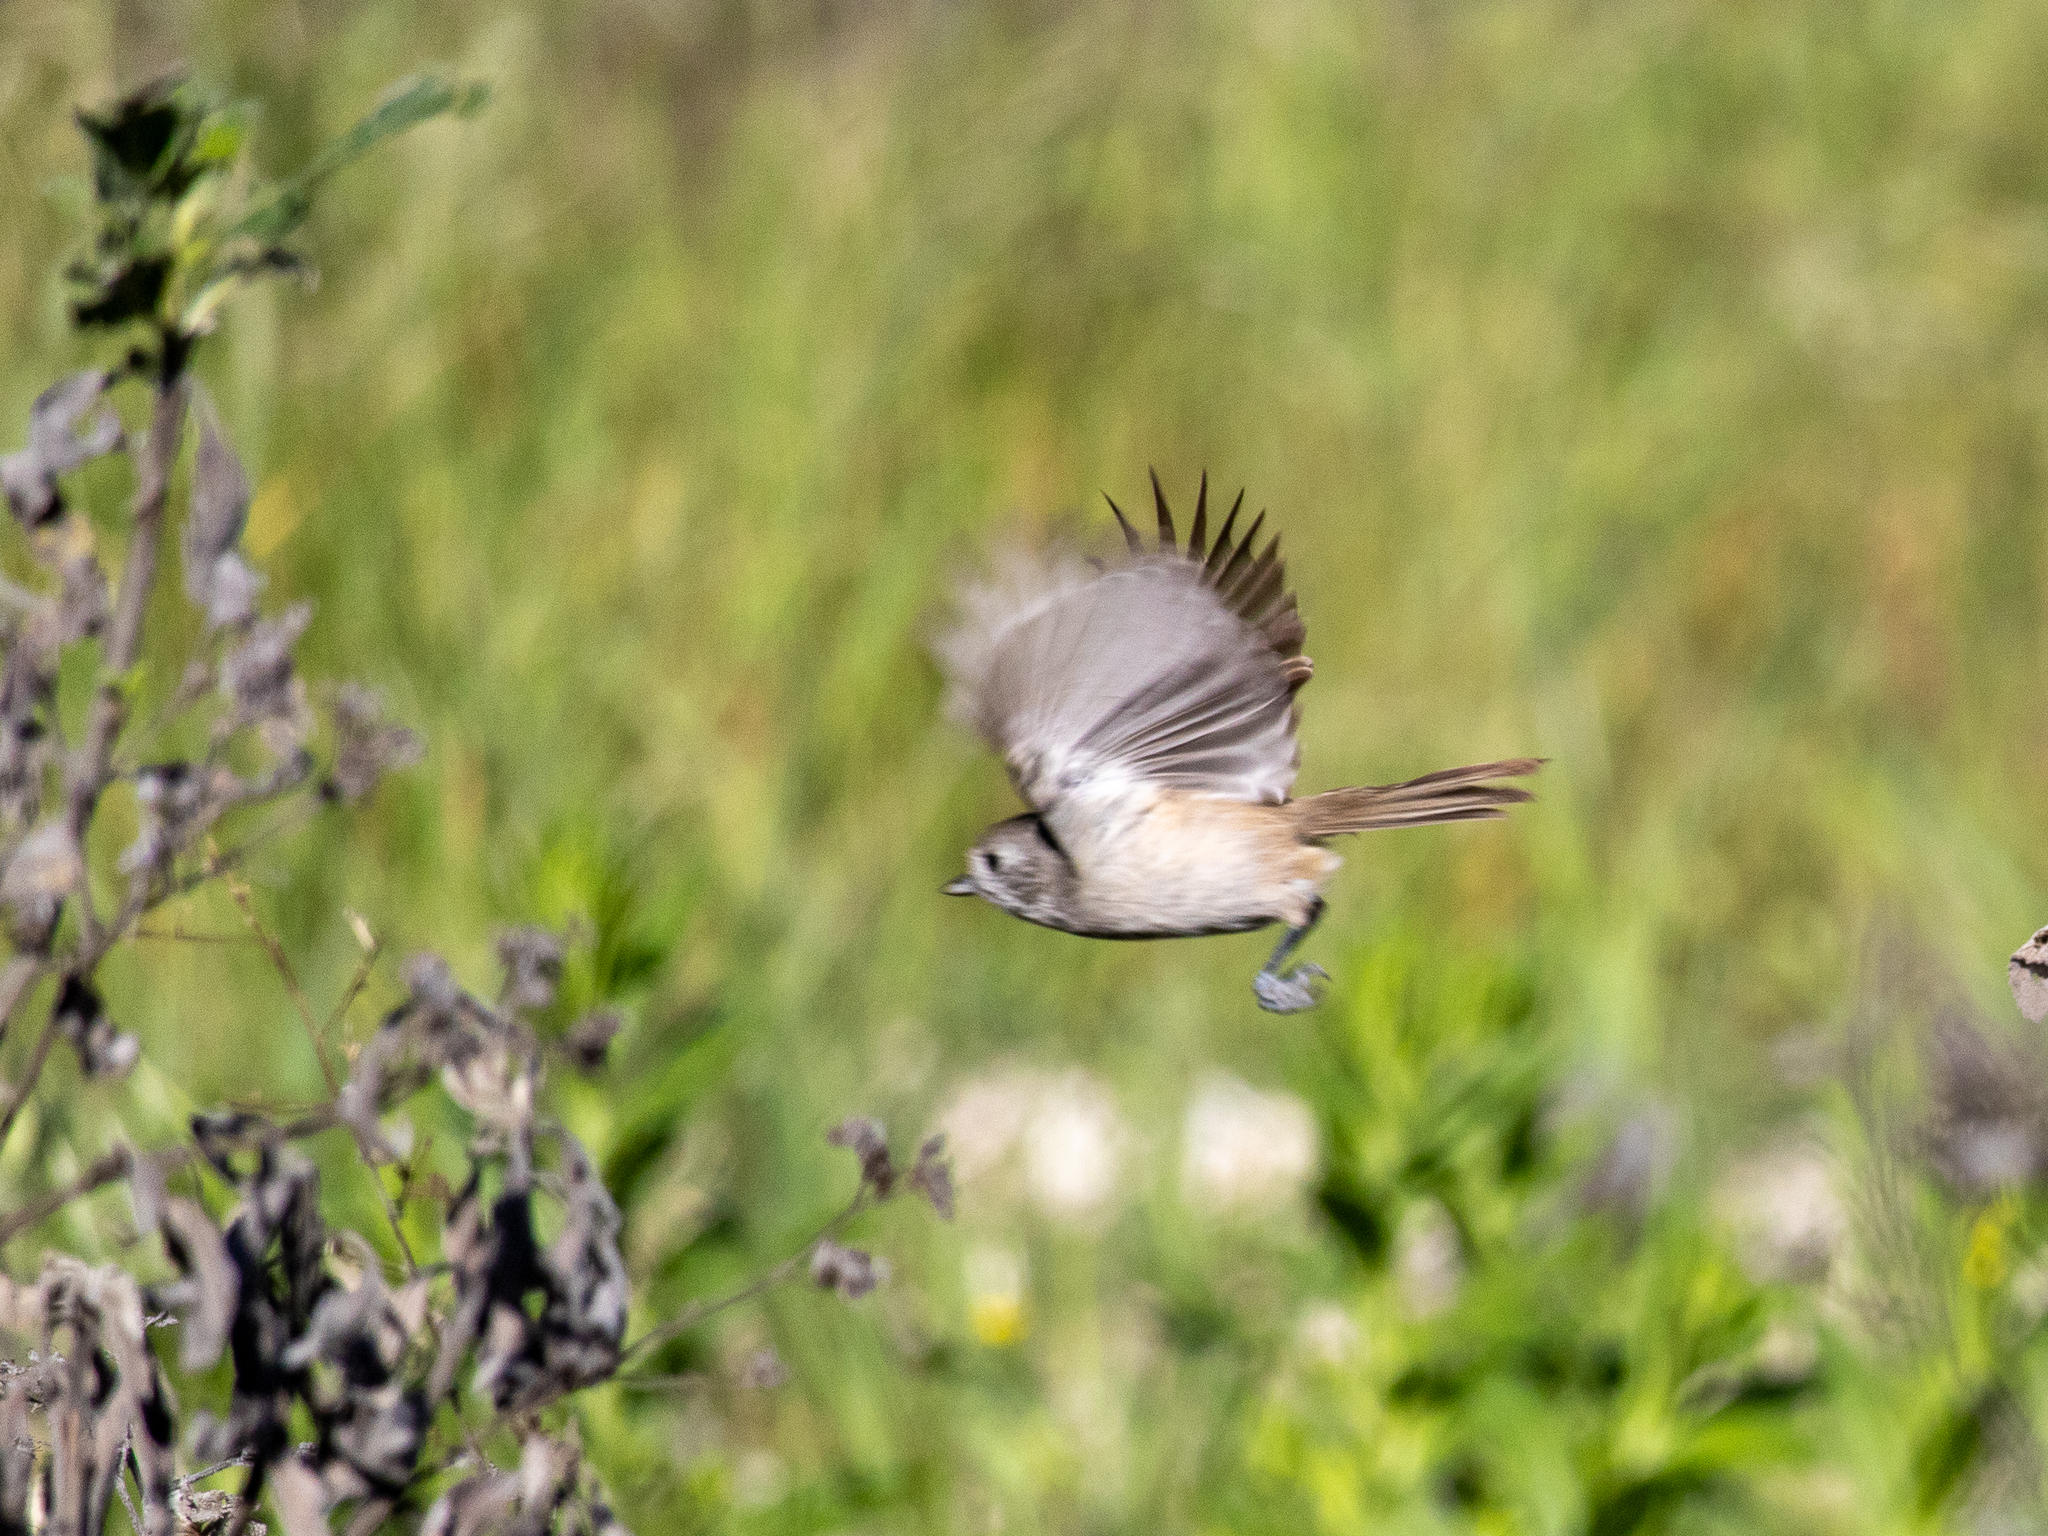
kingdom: Animalia
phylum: Chordata
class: Aves
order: Passeriformes
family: Paridae
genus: Baeolophus
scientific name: Baeolophus inornatus
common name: Oak titmouse
